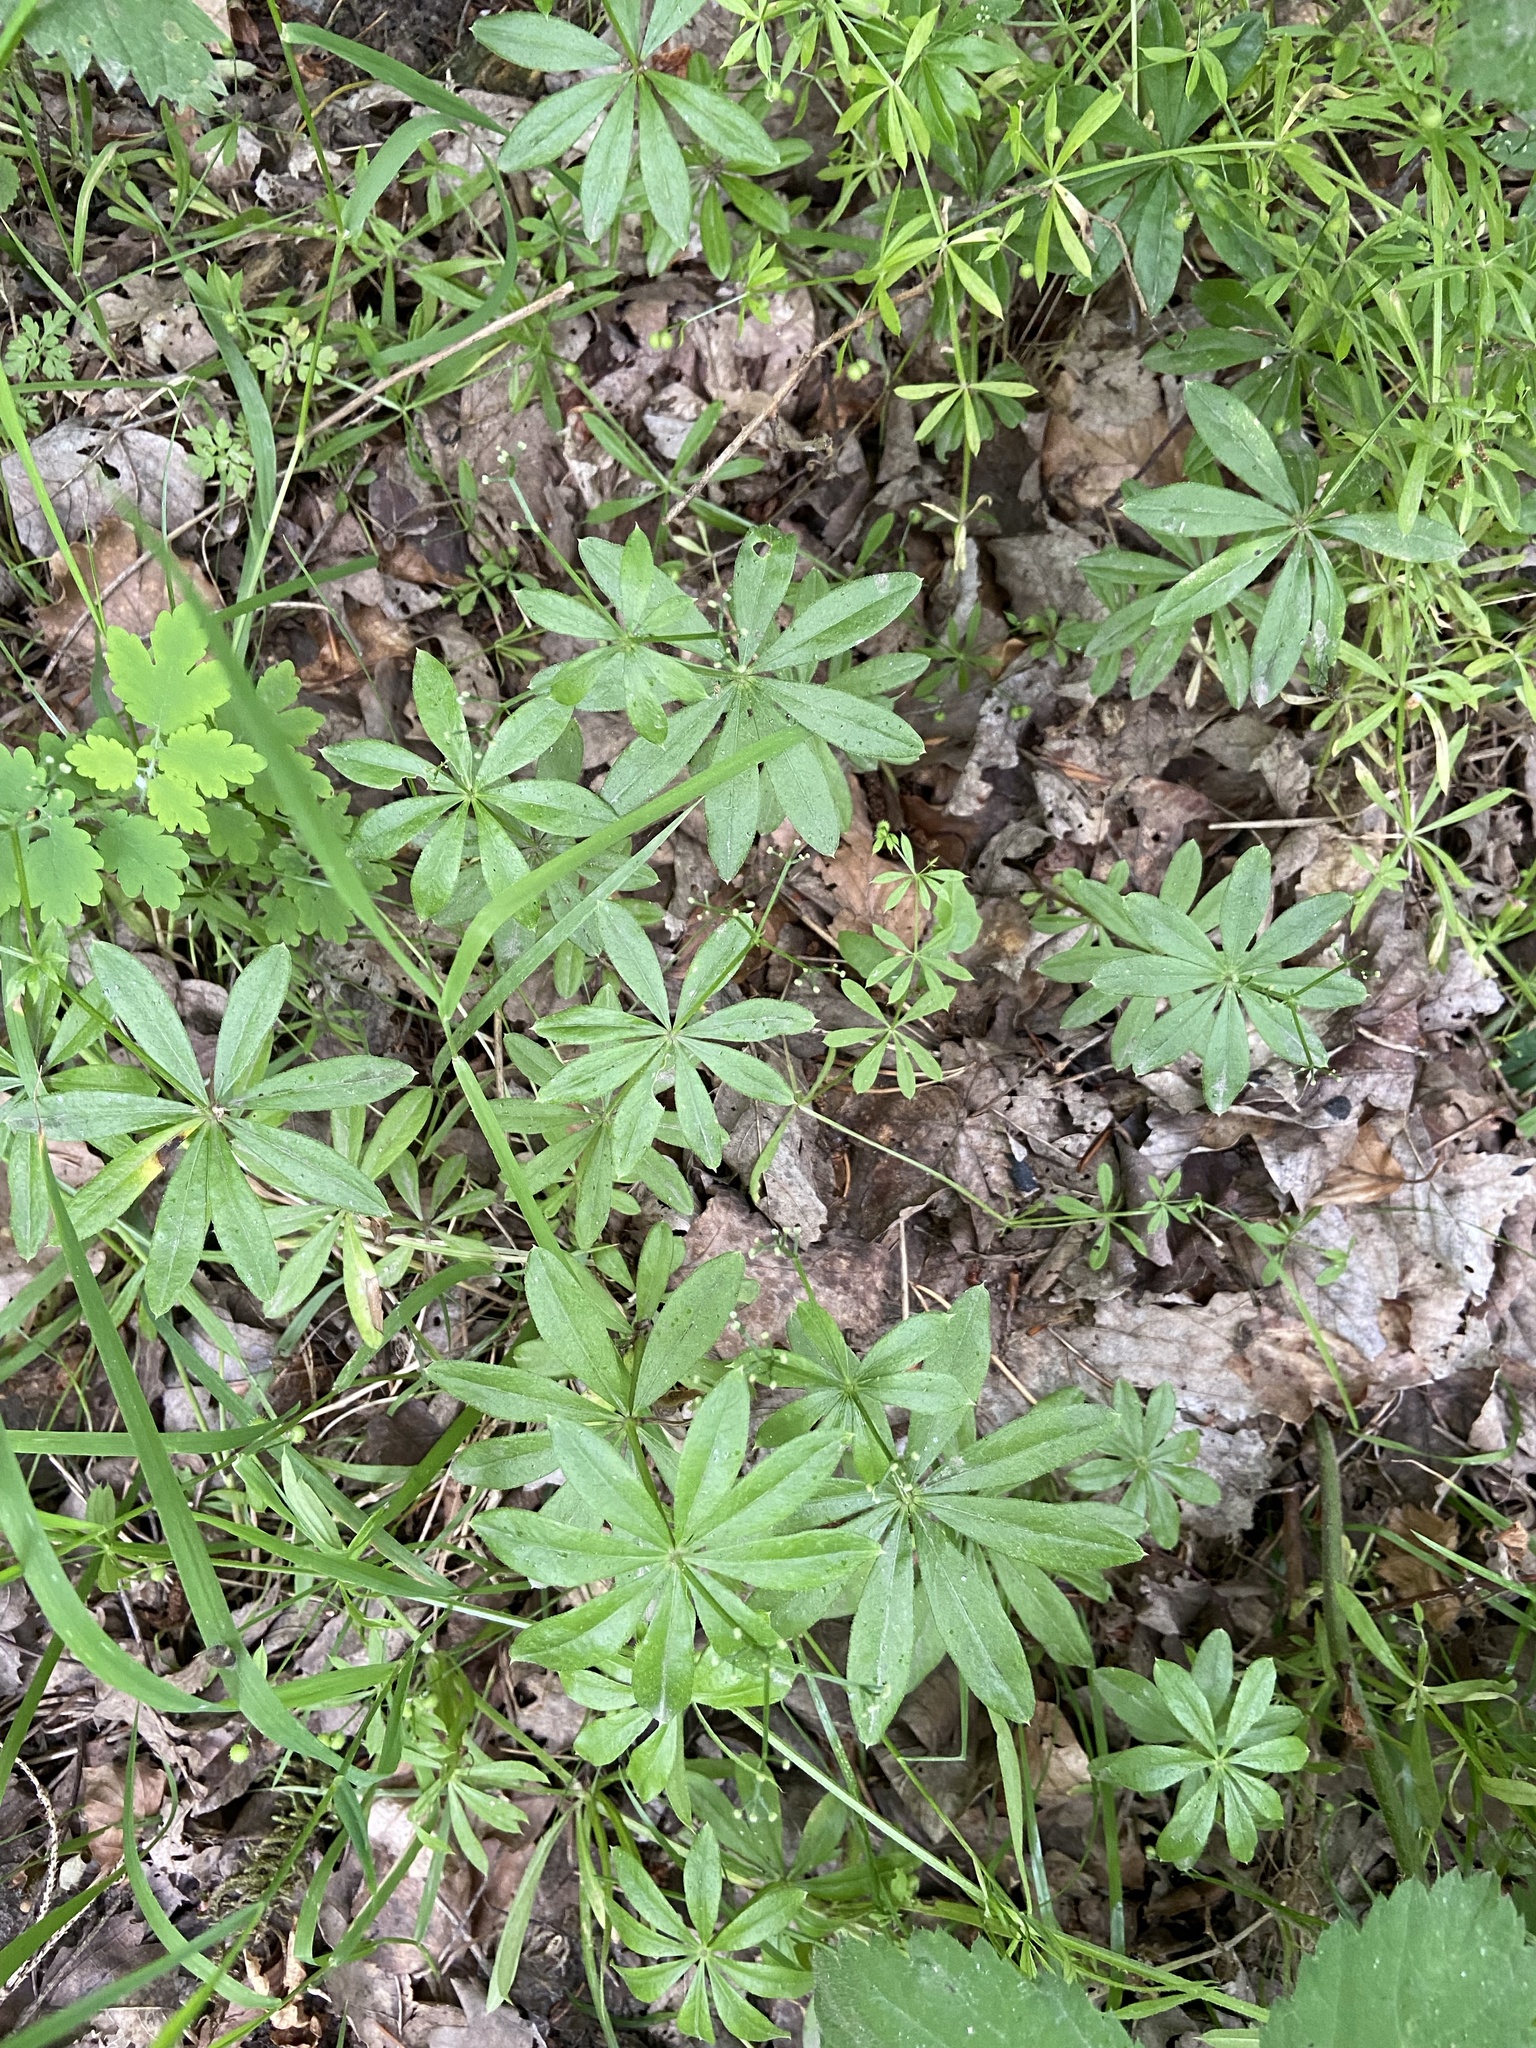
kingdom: Plantae
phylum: Tracheophyta
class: Magnoliopsida
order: Gentianales
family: Rubiaceae
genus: Galium
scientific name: Galium odoratum
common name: Sweet woodruff
